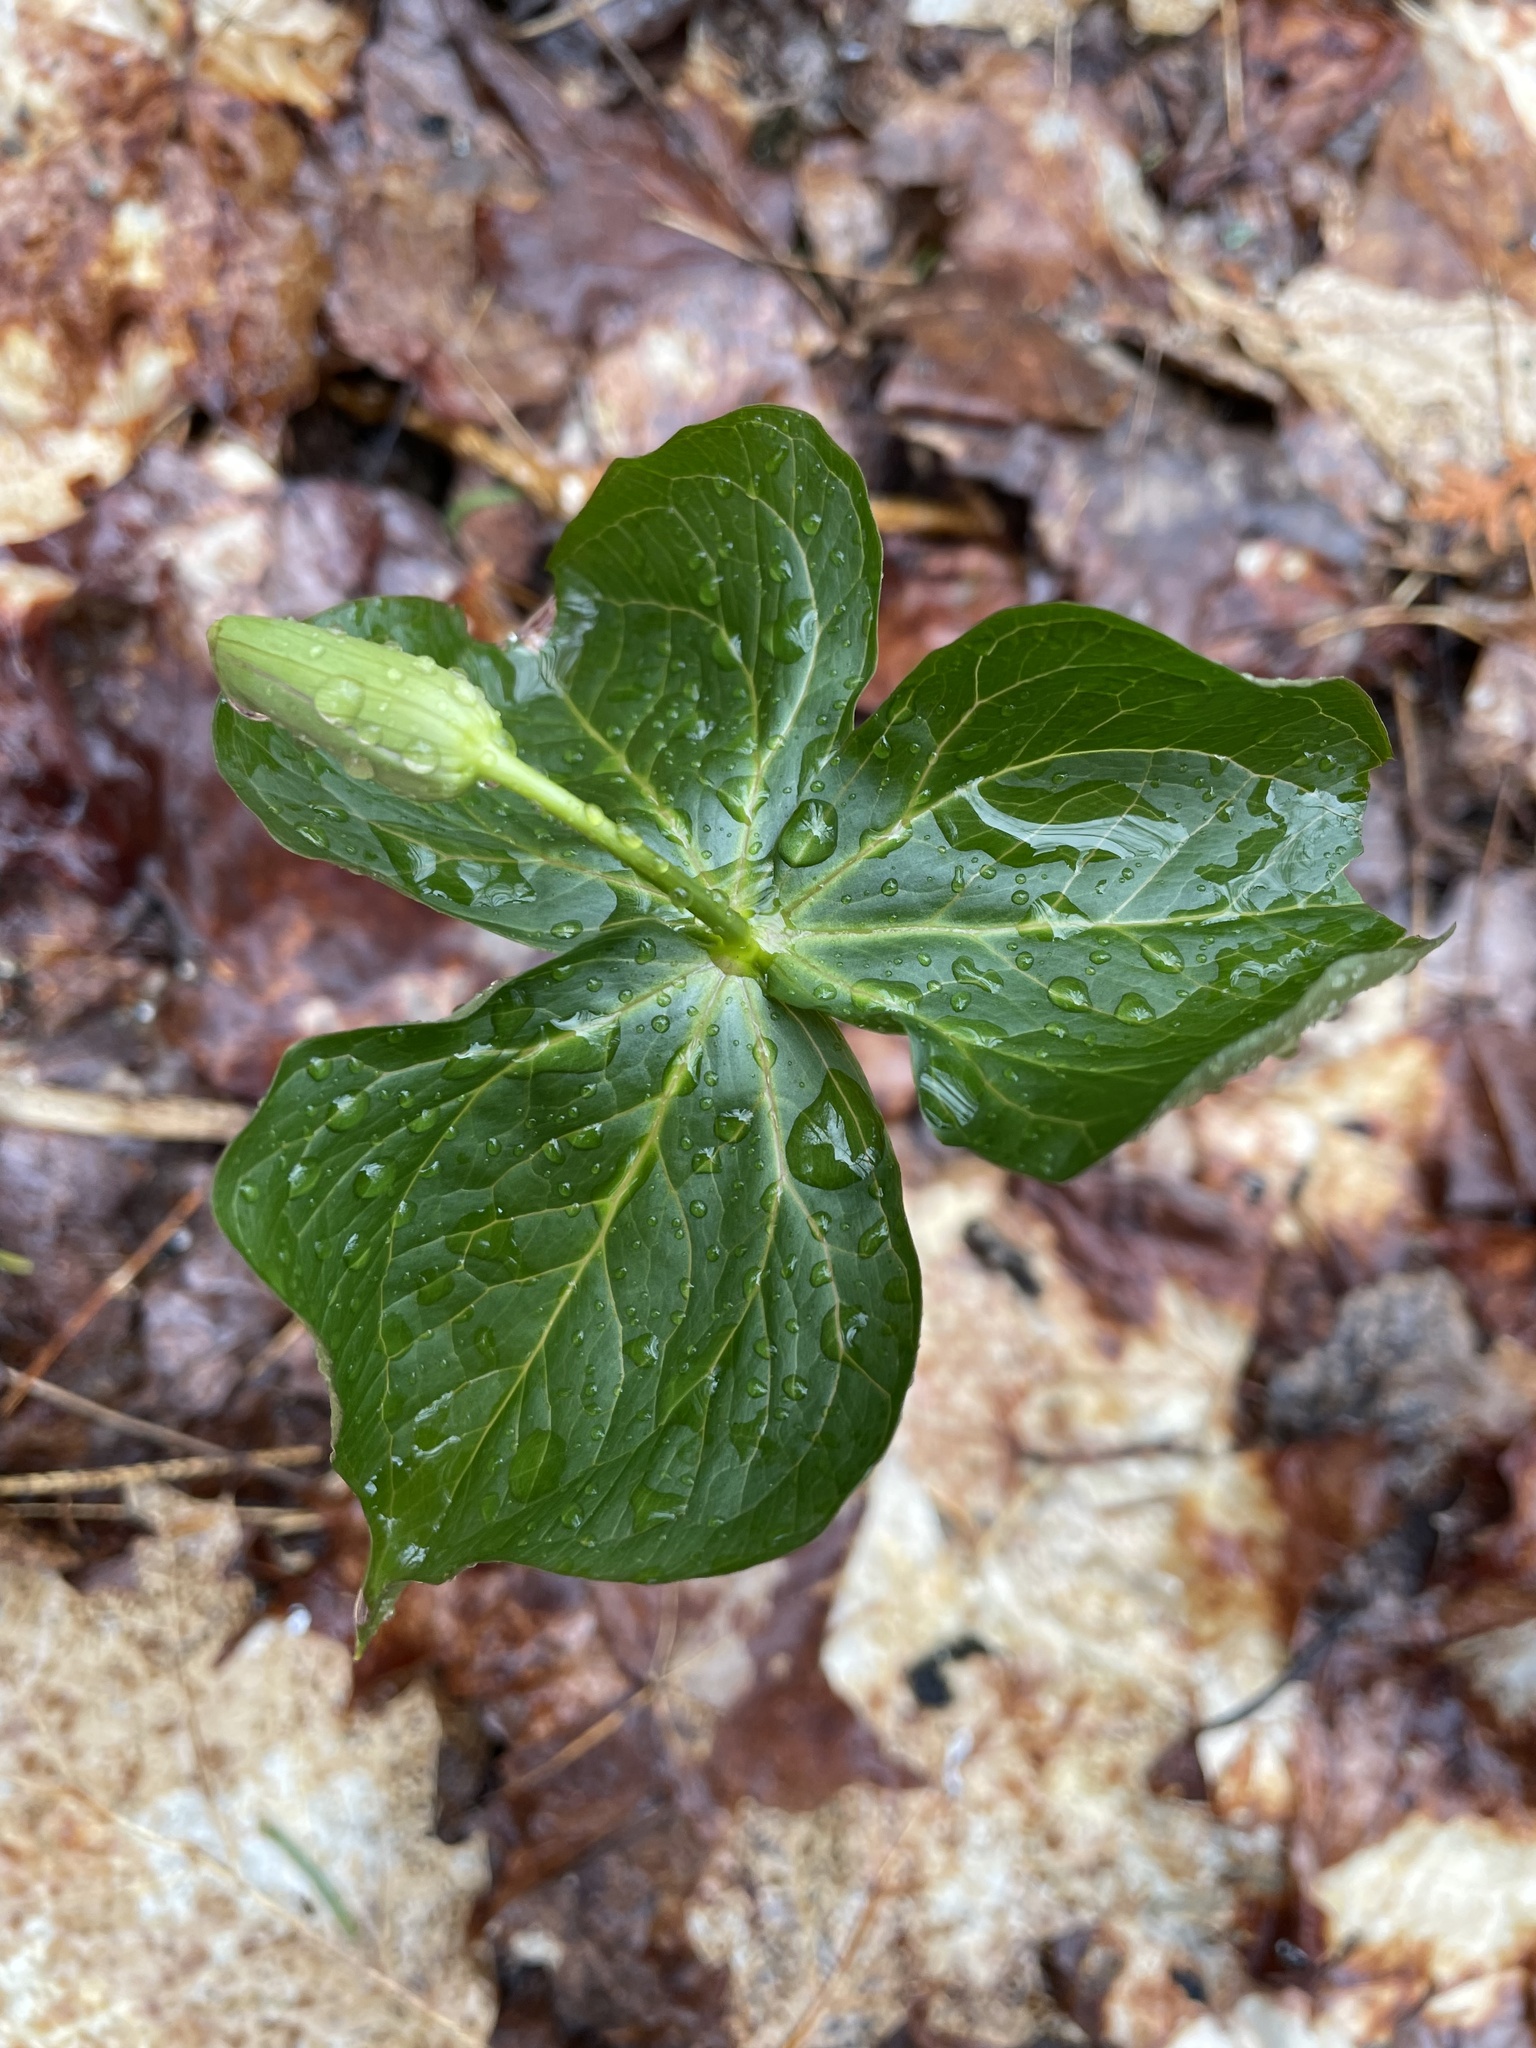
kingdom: Plantae
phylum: Tracheophyta
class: Liliopsida
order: Liliales
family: Melanthiaceae
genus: Trillium
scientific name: Trillium erectum
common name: Purple trillium
